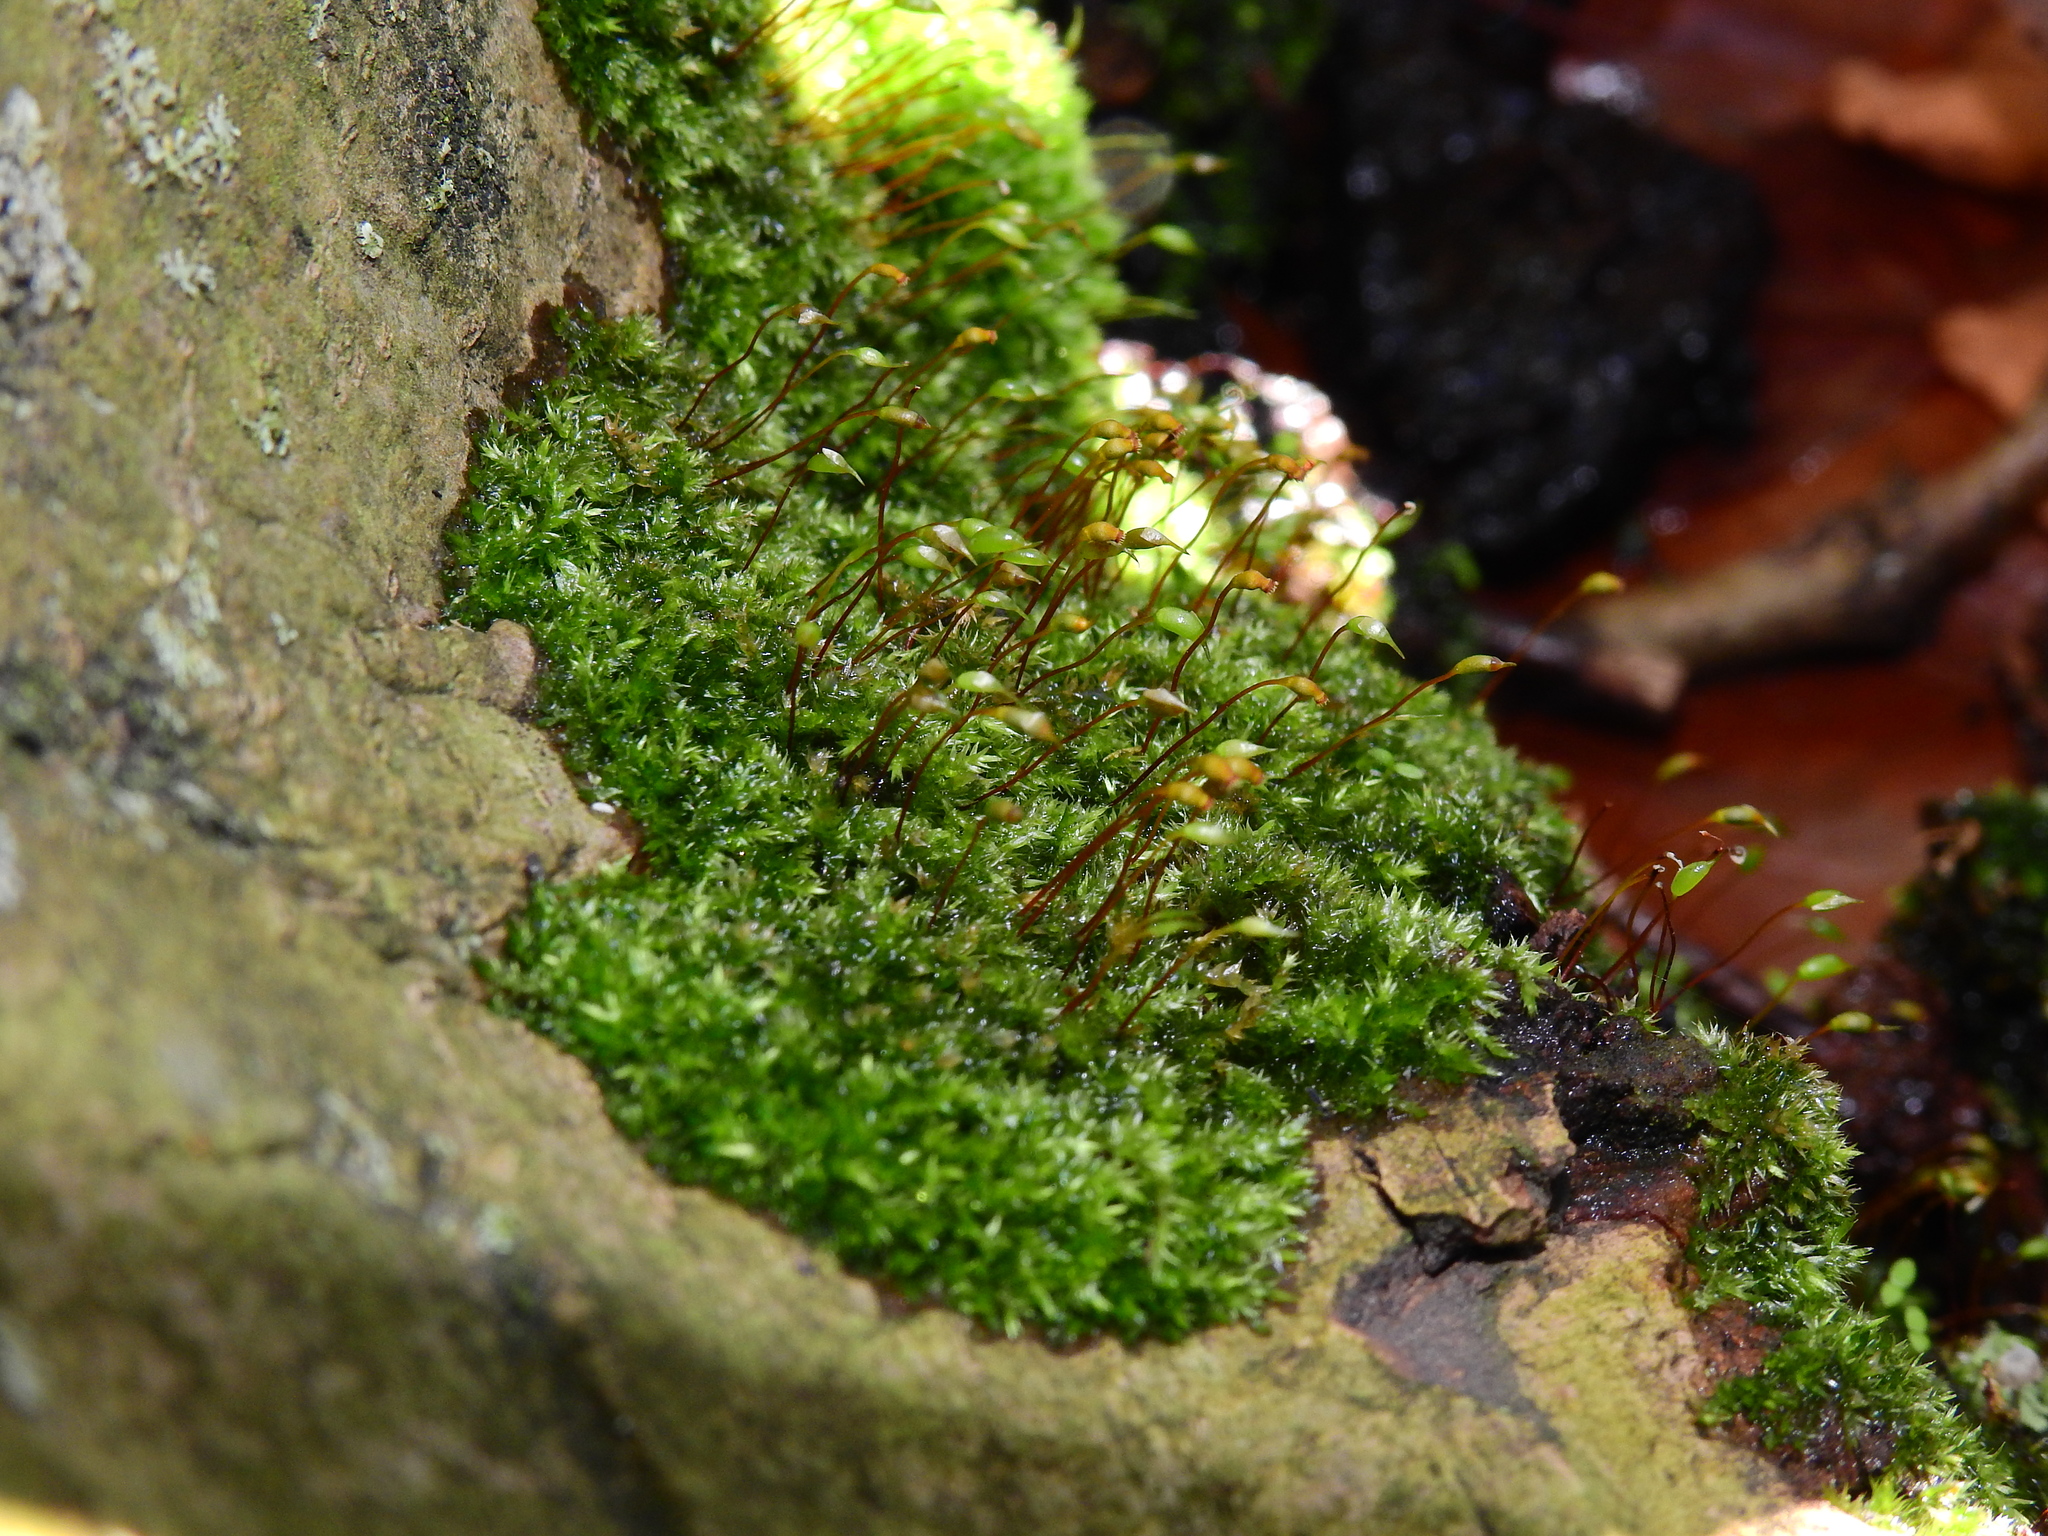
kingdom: Plantae
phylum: Bryophyta
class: Bryopsida
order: Hypnales
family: Brachytheciaceae
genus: Rhynchostegium
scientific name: Rhynchostegium confertum
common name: Clustered feather-moss
